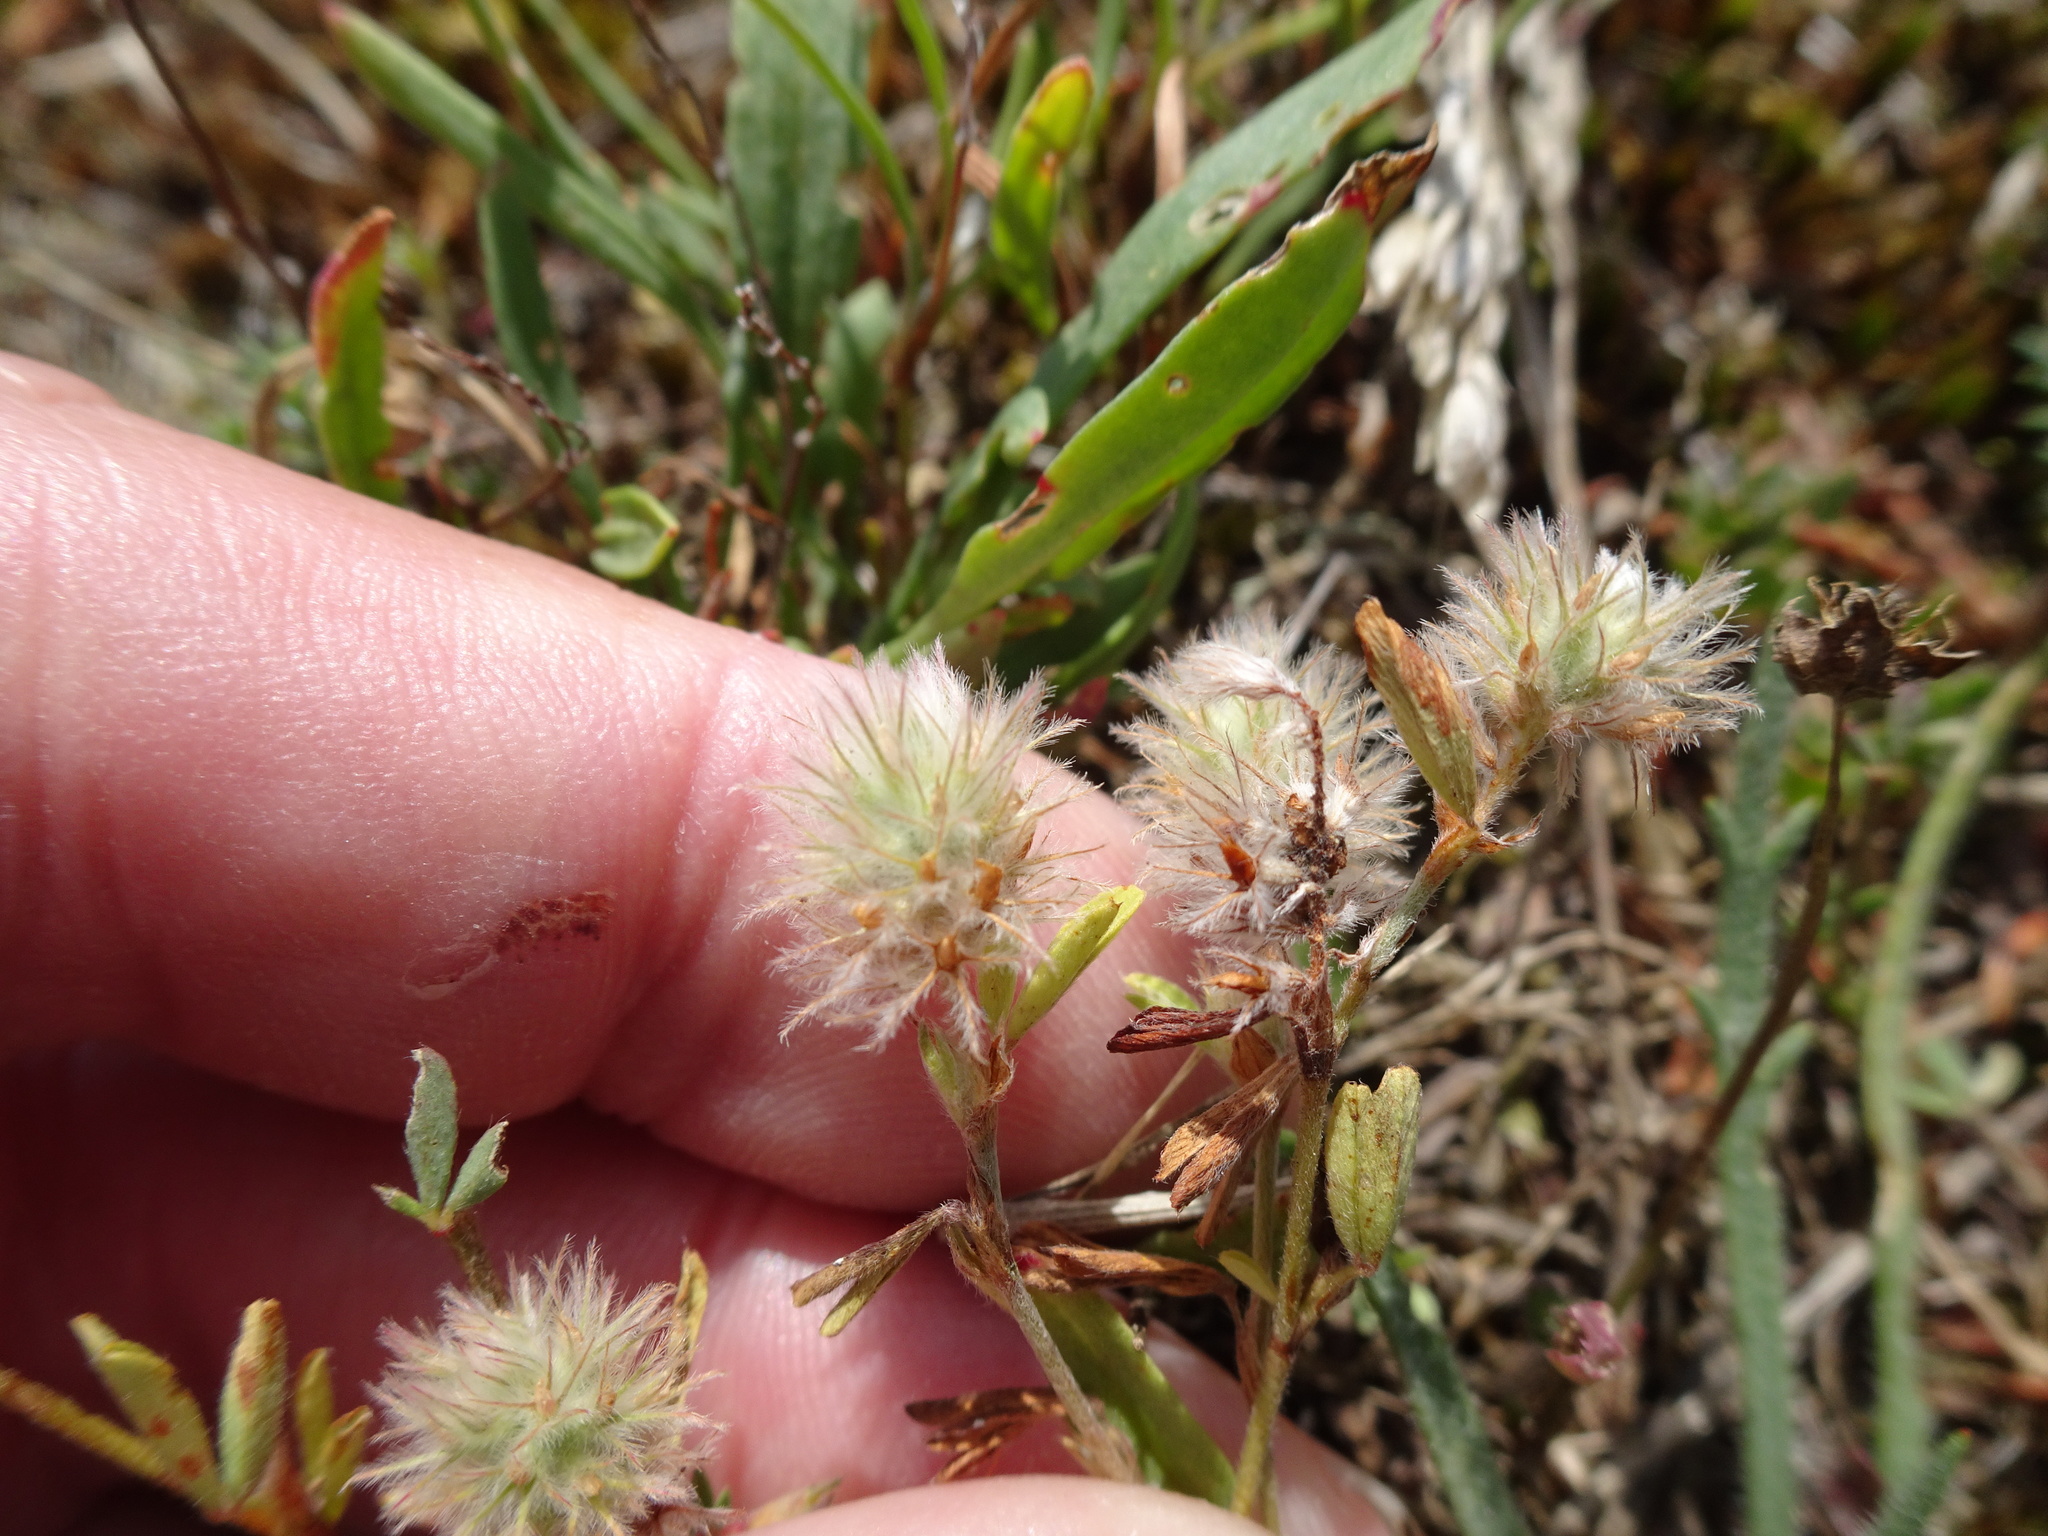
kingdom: Plantae
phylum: Tracheophyta
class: Magnoliopsida
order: Fabales
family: Fabaceae
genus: Trifolium
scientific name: Trifolium arvense
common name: Hare's-foot clover
